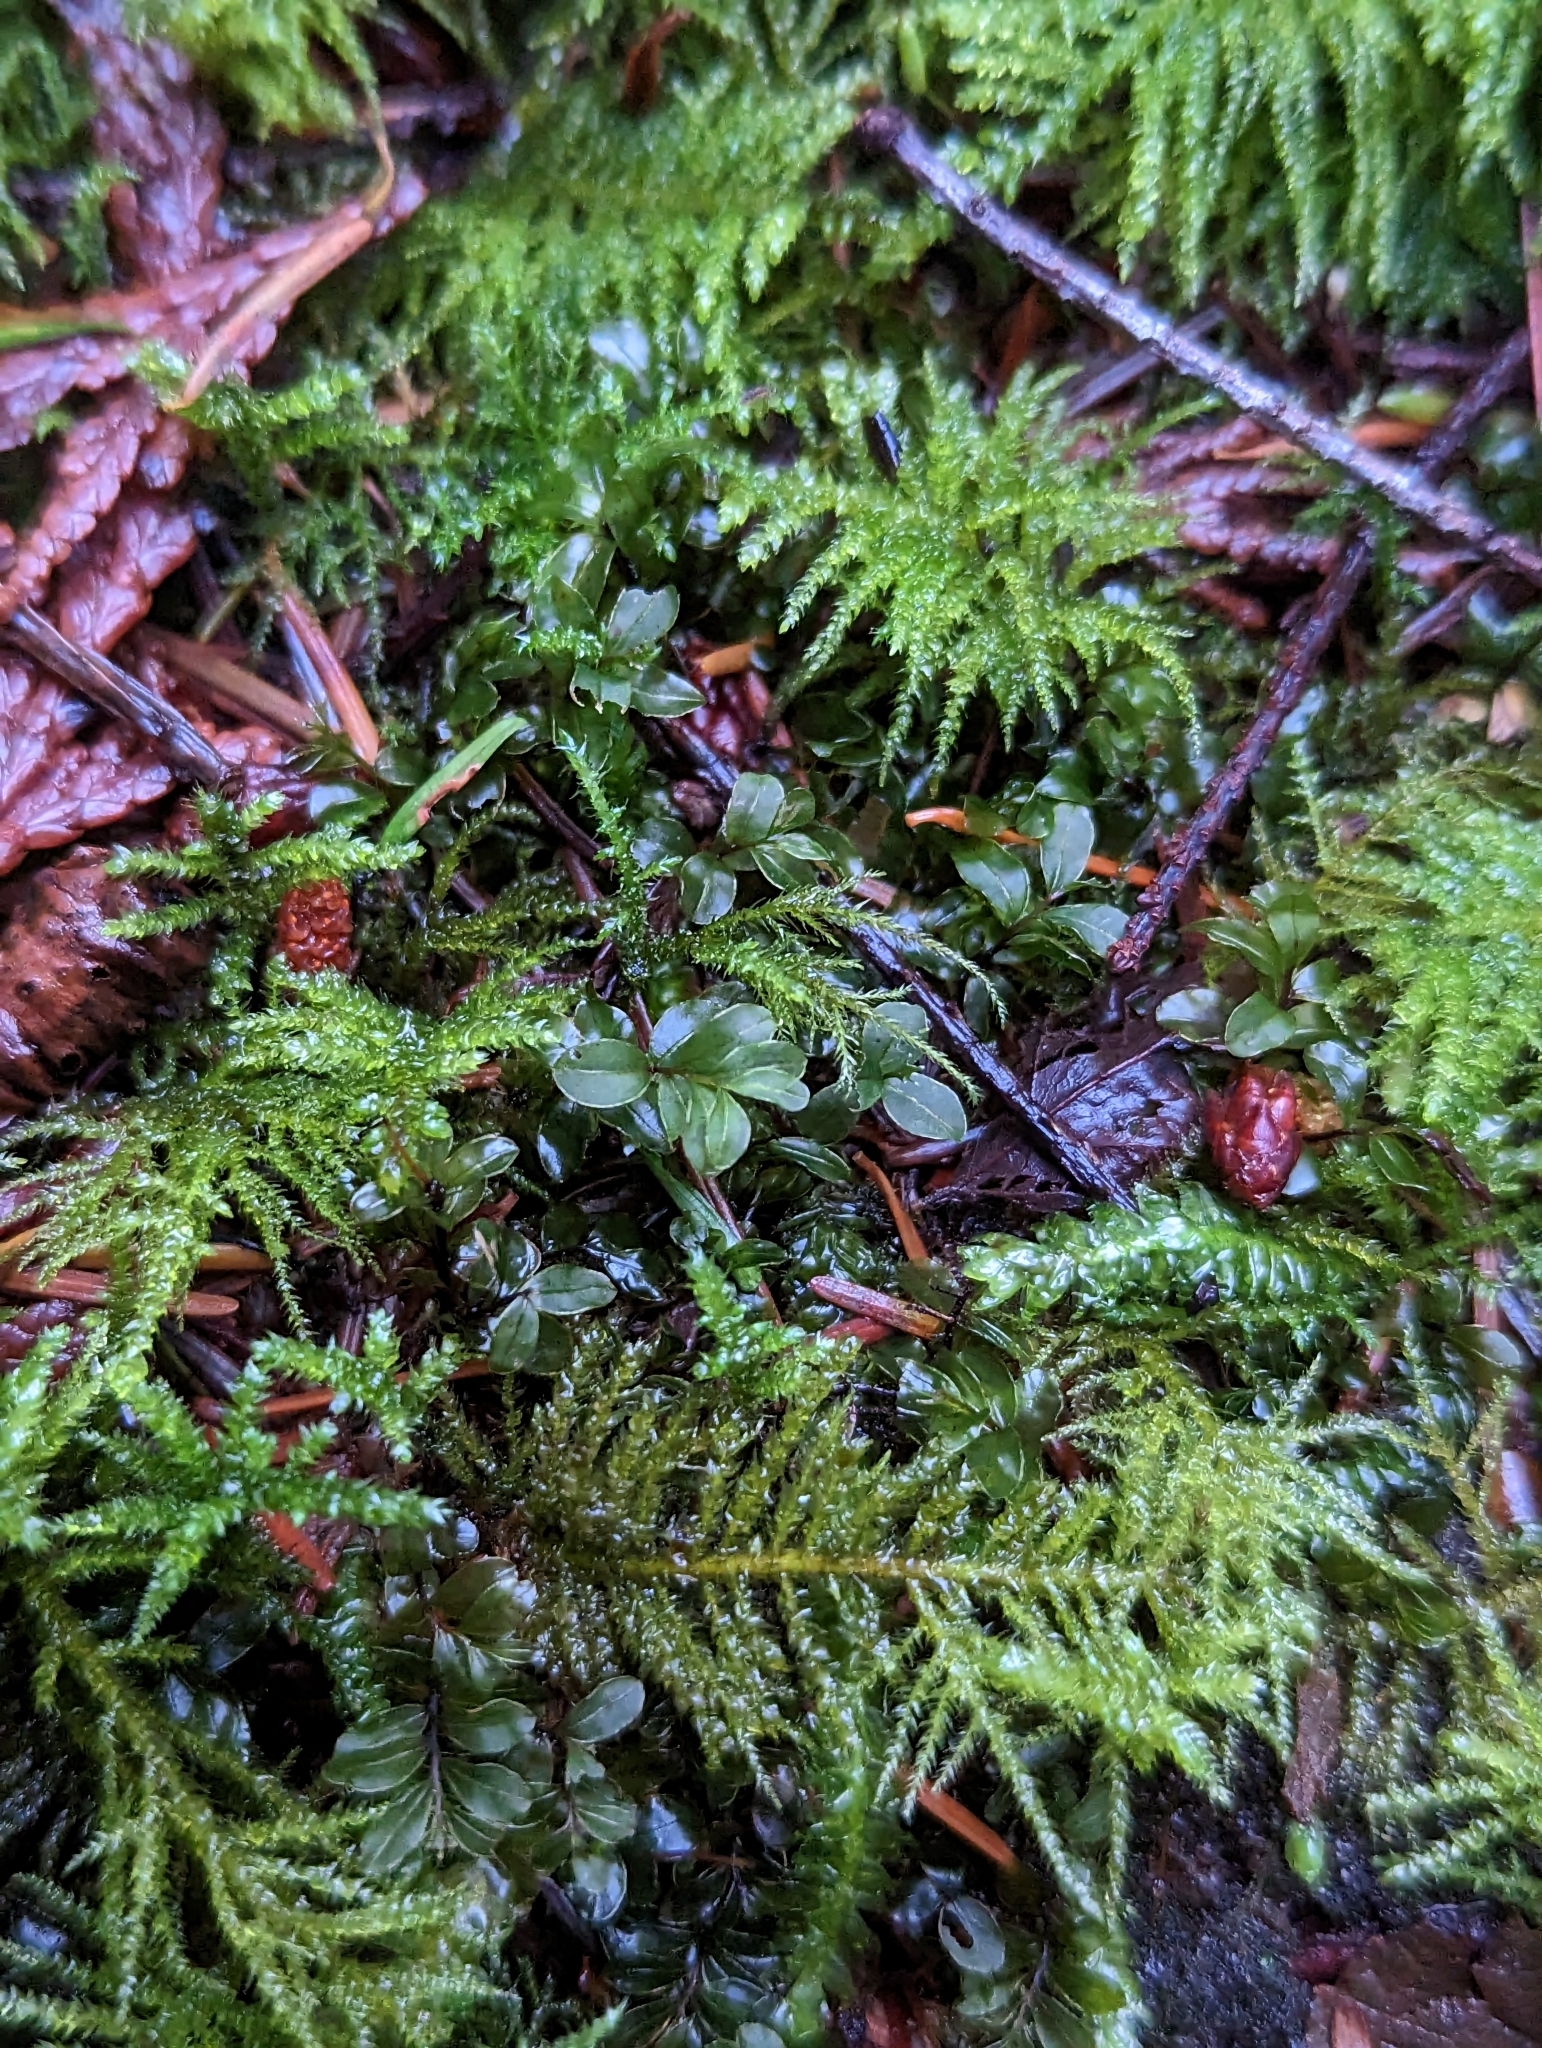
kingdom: Plantae
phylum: Bryophyta
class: Bryopsida
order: Bryales
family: Mniaceae
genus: Rhizomnium
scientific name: Rhizomnium glabrescens
